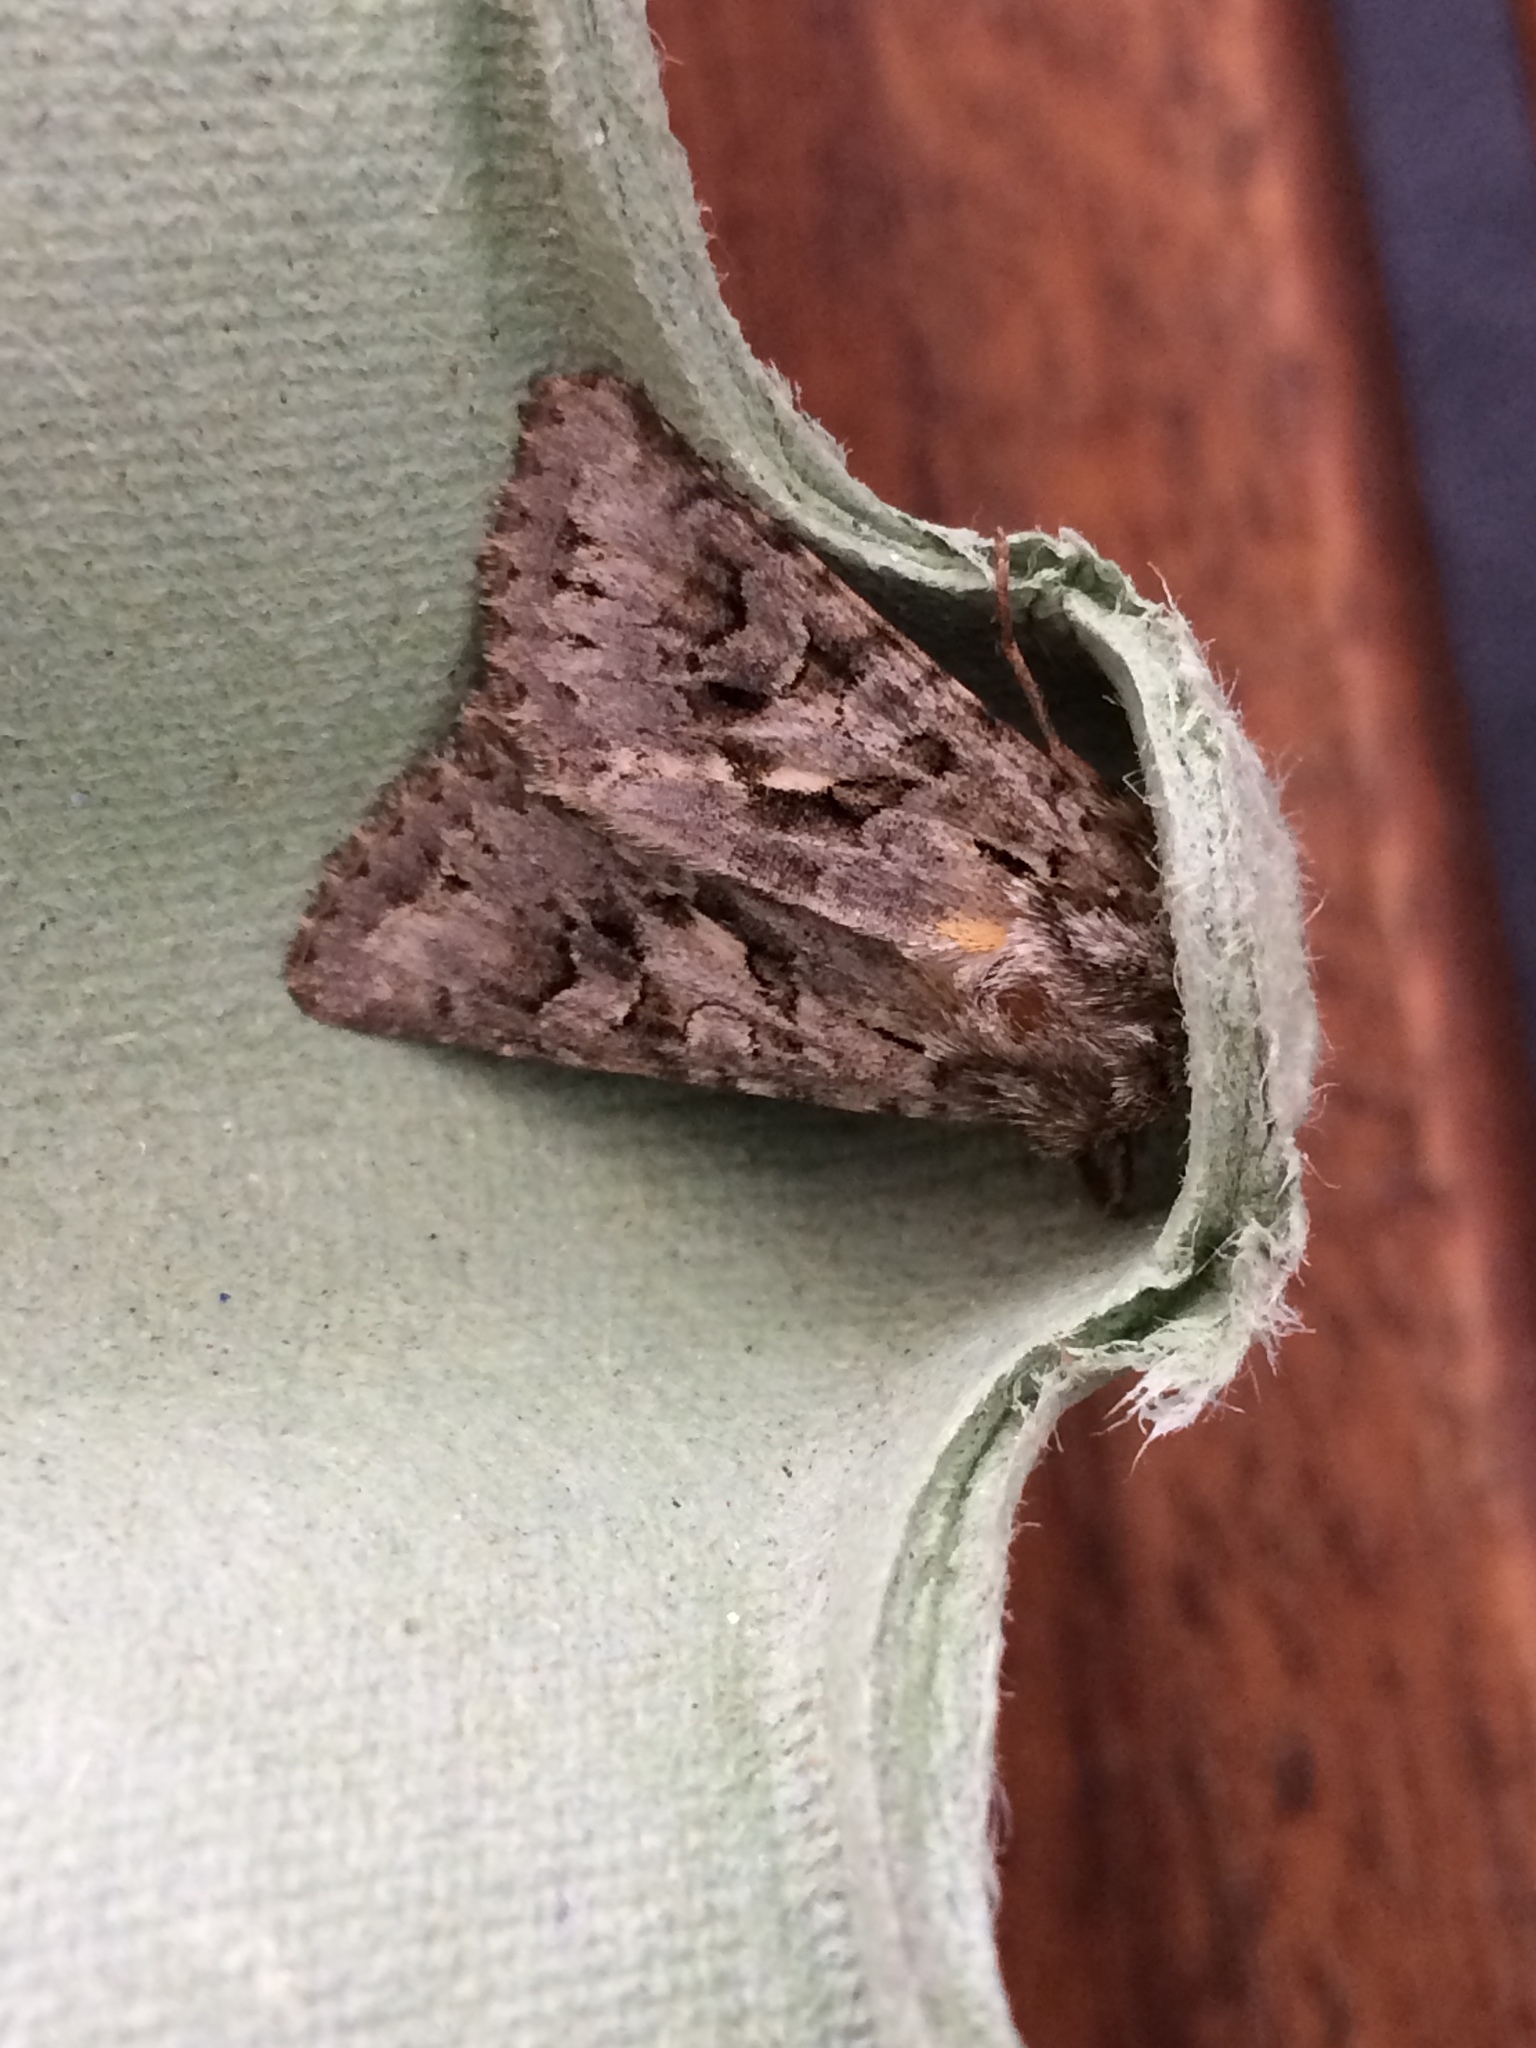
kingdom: Animalia
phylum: Arthropoda
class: Insecta
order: Lepidoptera
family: Noctuidae
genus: Hada
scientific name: Hada plebeja
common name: Shears
